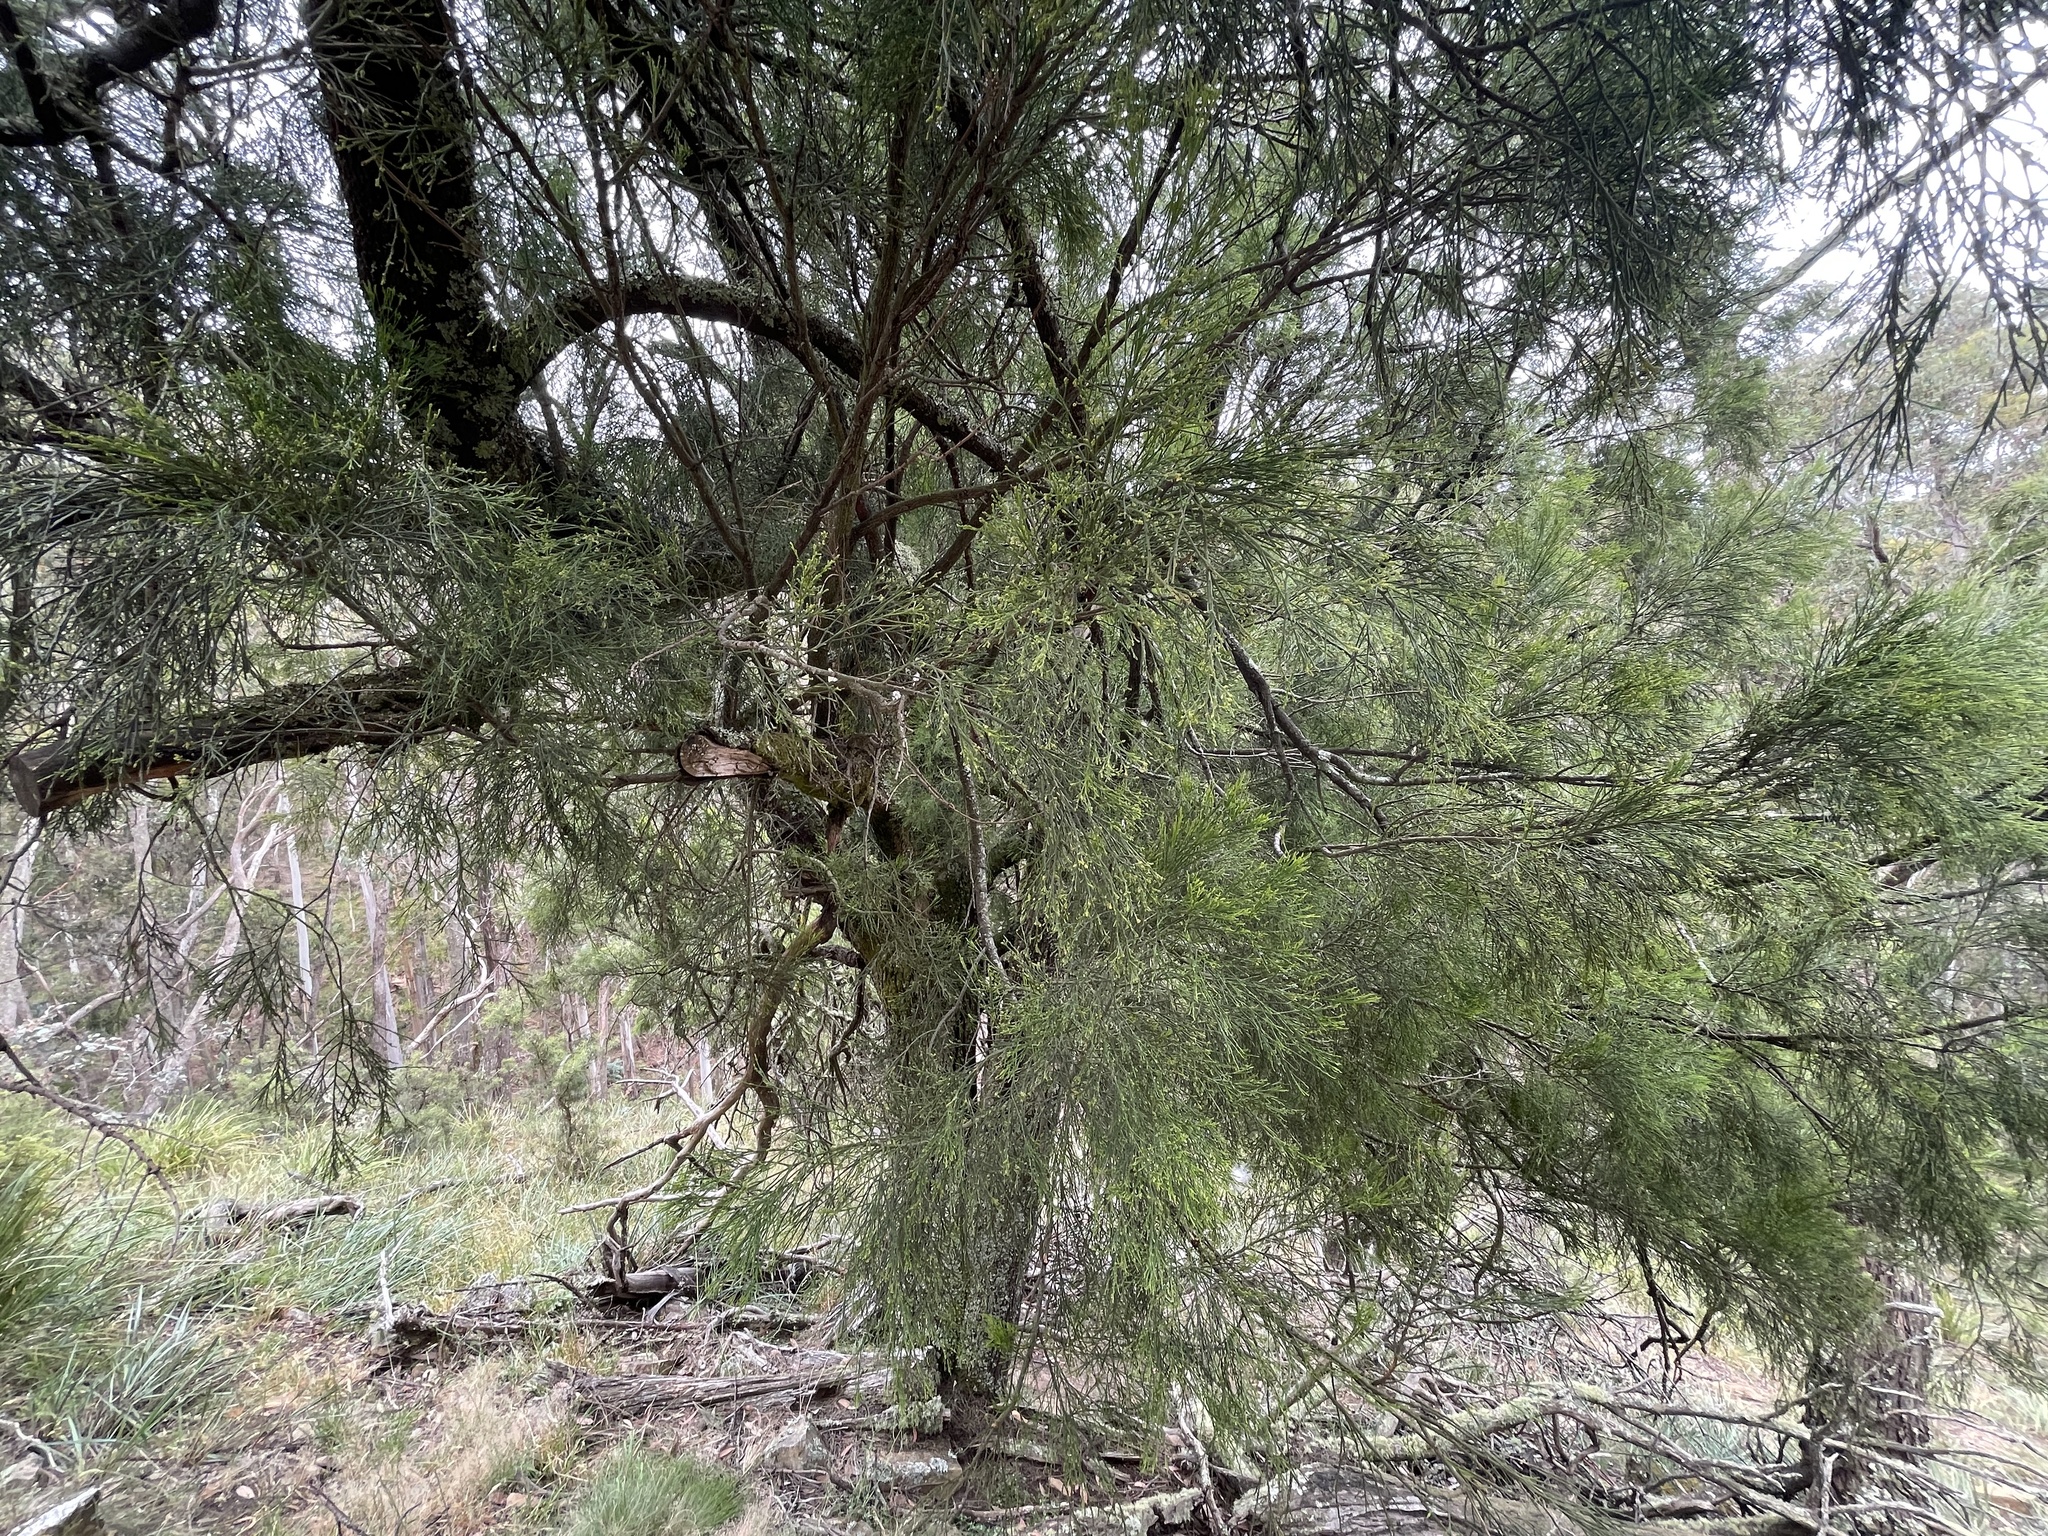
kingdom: Plantae
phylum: Tracheophyta
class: Magnoliopsida
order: Santalales
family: Santalaceae
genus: Exocarpos
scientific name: Exocarpos cupressiformis
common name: Cherry ballart
